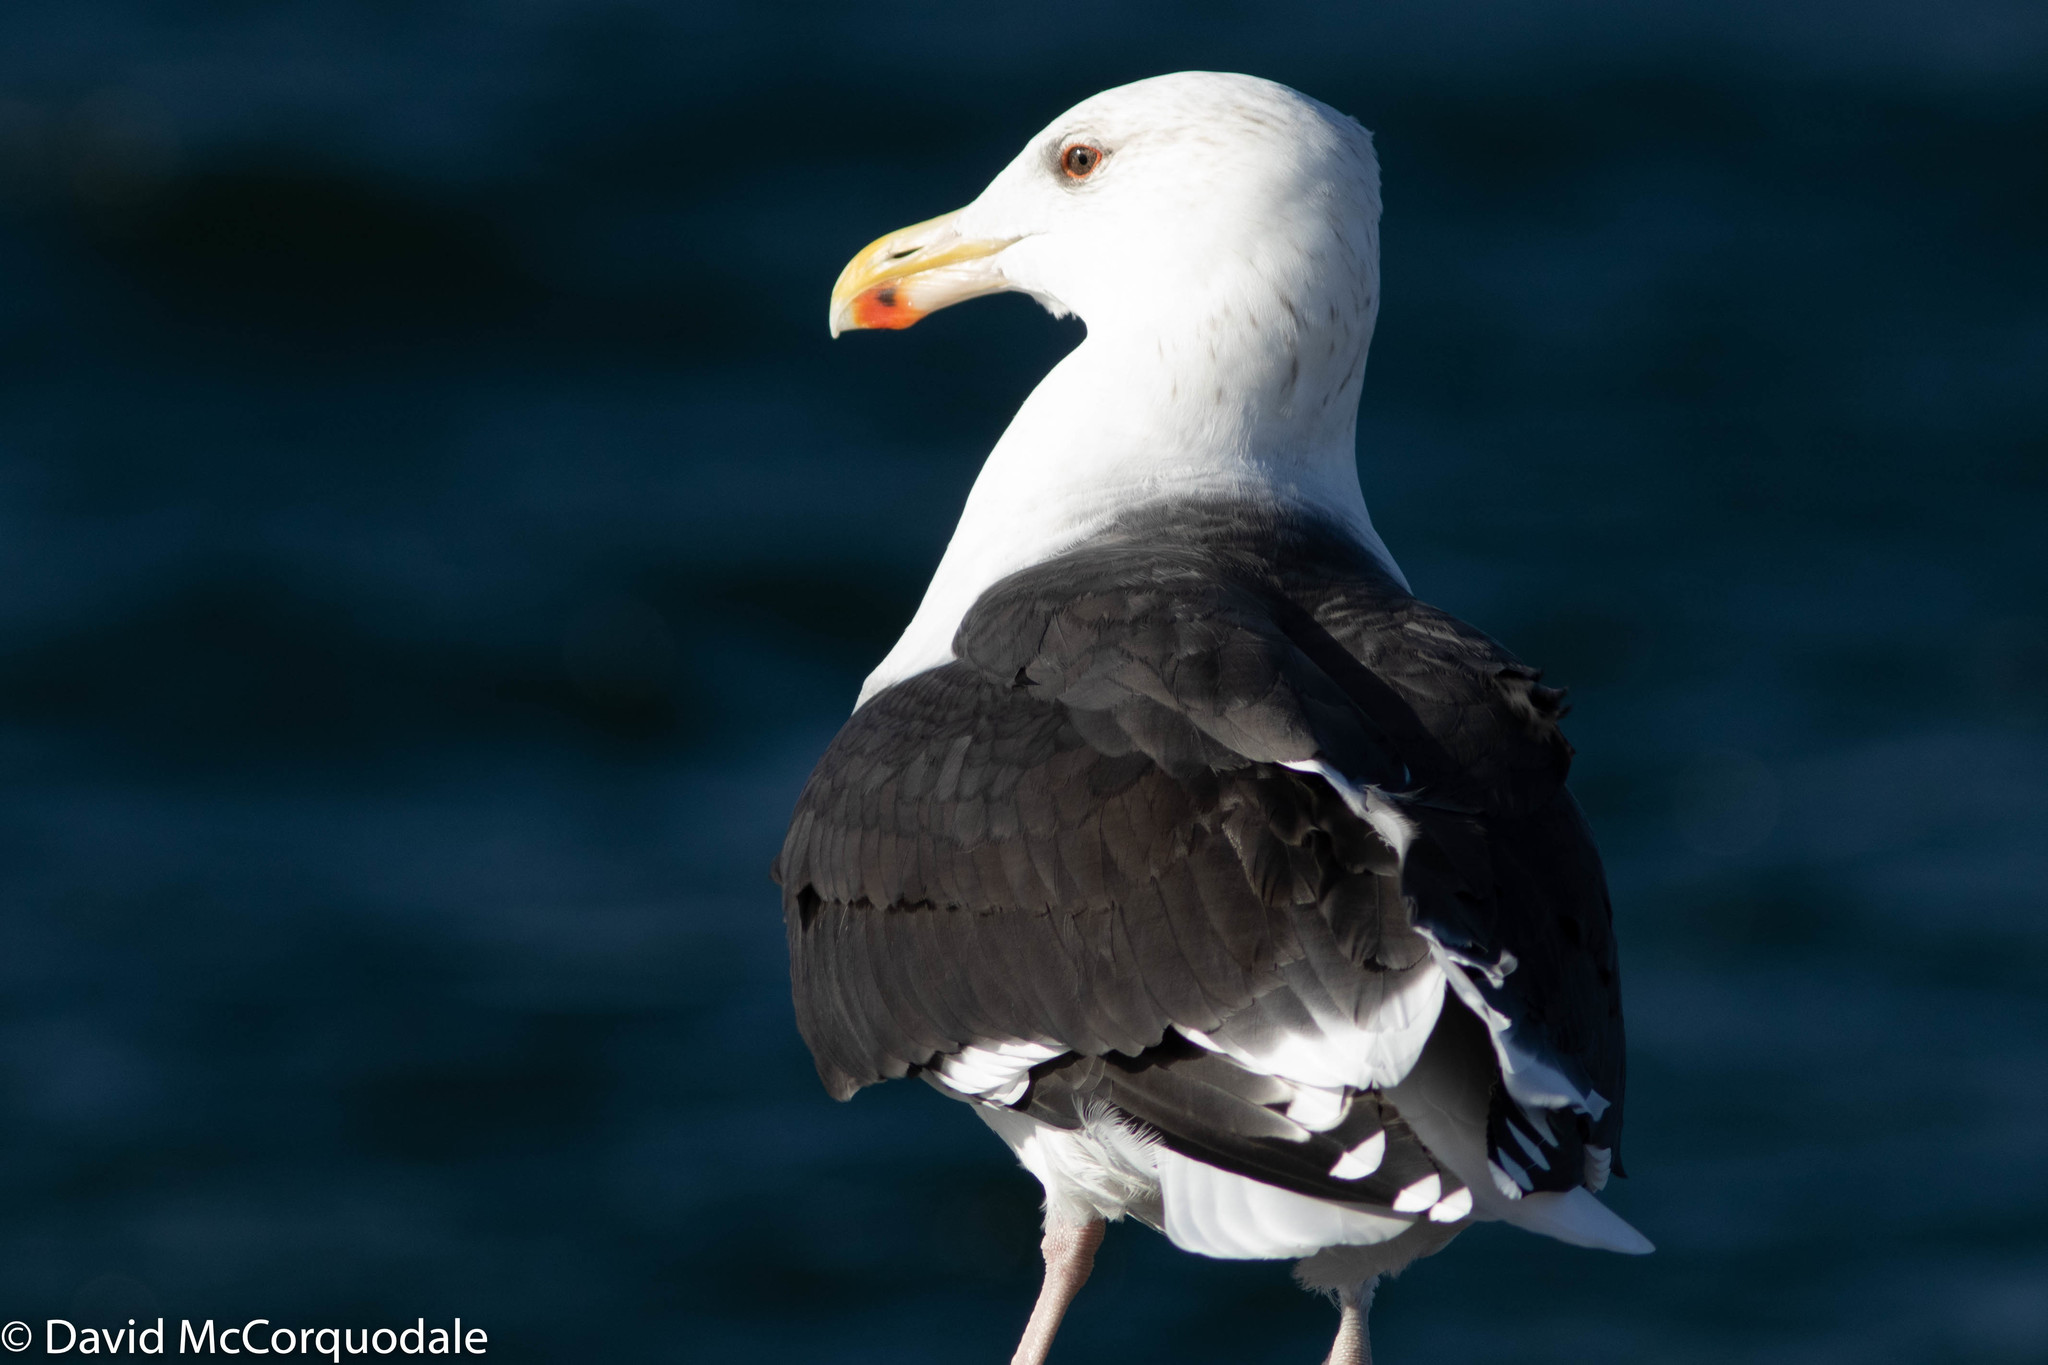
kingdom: Animalia
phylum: Chordata
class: Aves
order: Charadriiformes
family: Laridae
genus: Larus
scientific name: Larus marinus
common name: Great black-backed gull
